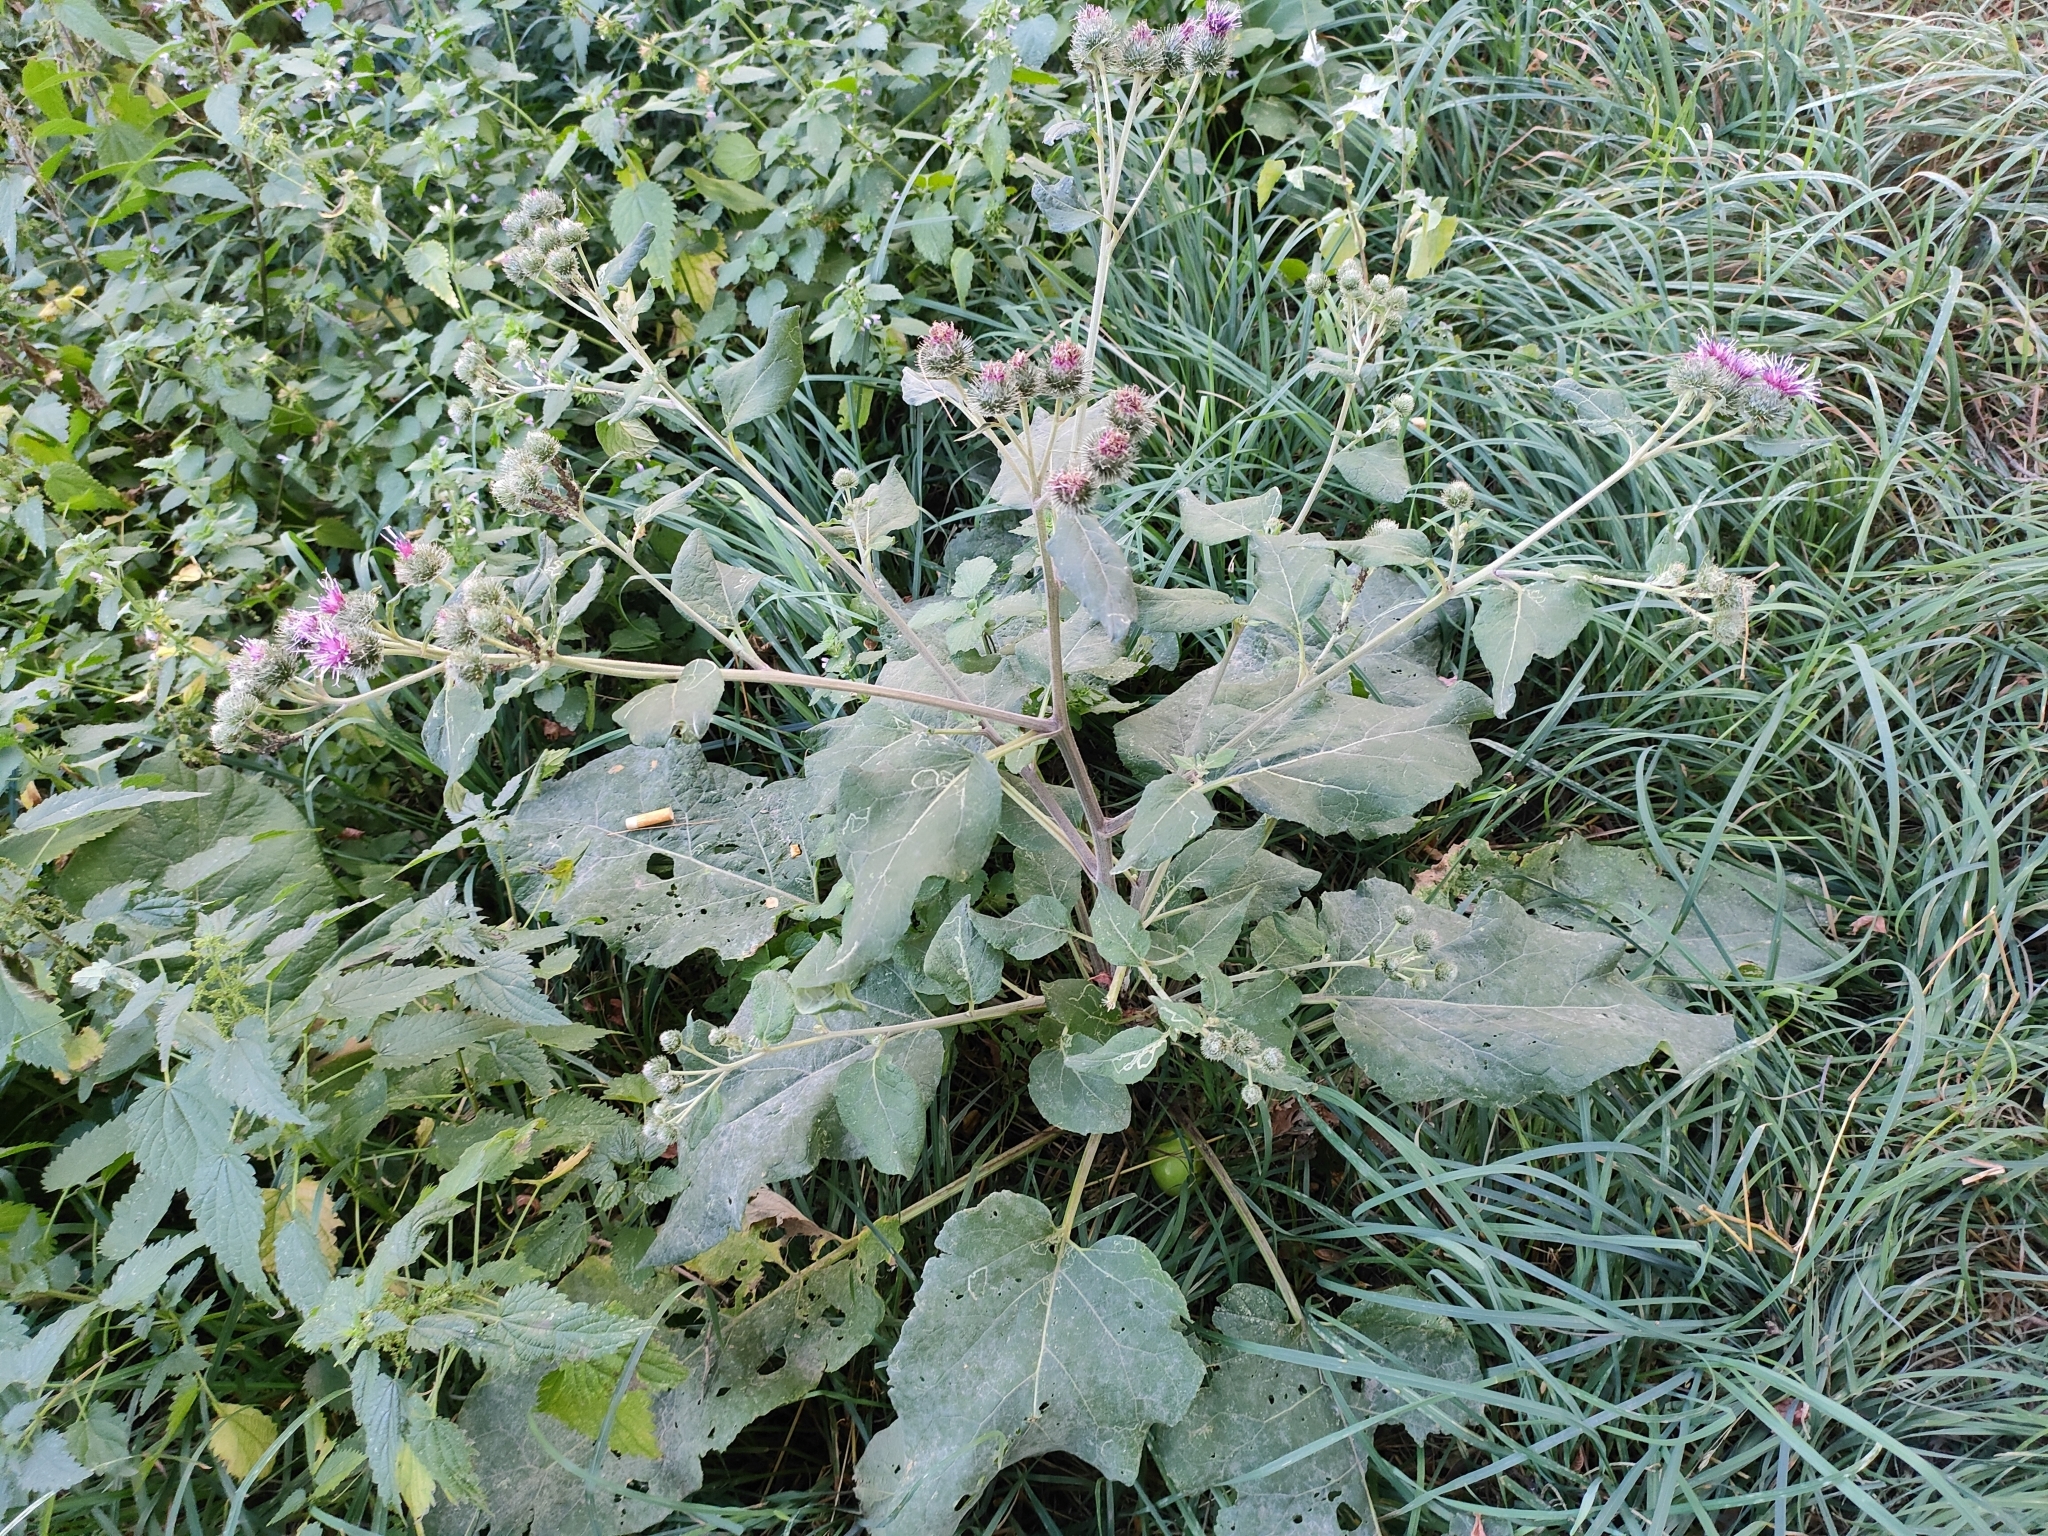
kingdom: Plantae
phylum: Tracheophyta
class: Magnoliopsida
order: Asterales
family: Asteraceae
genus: Arctium
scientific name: Arctium tomentosum
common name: Woolly burdock
